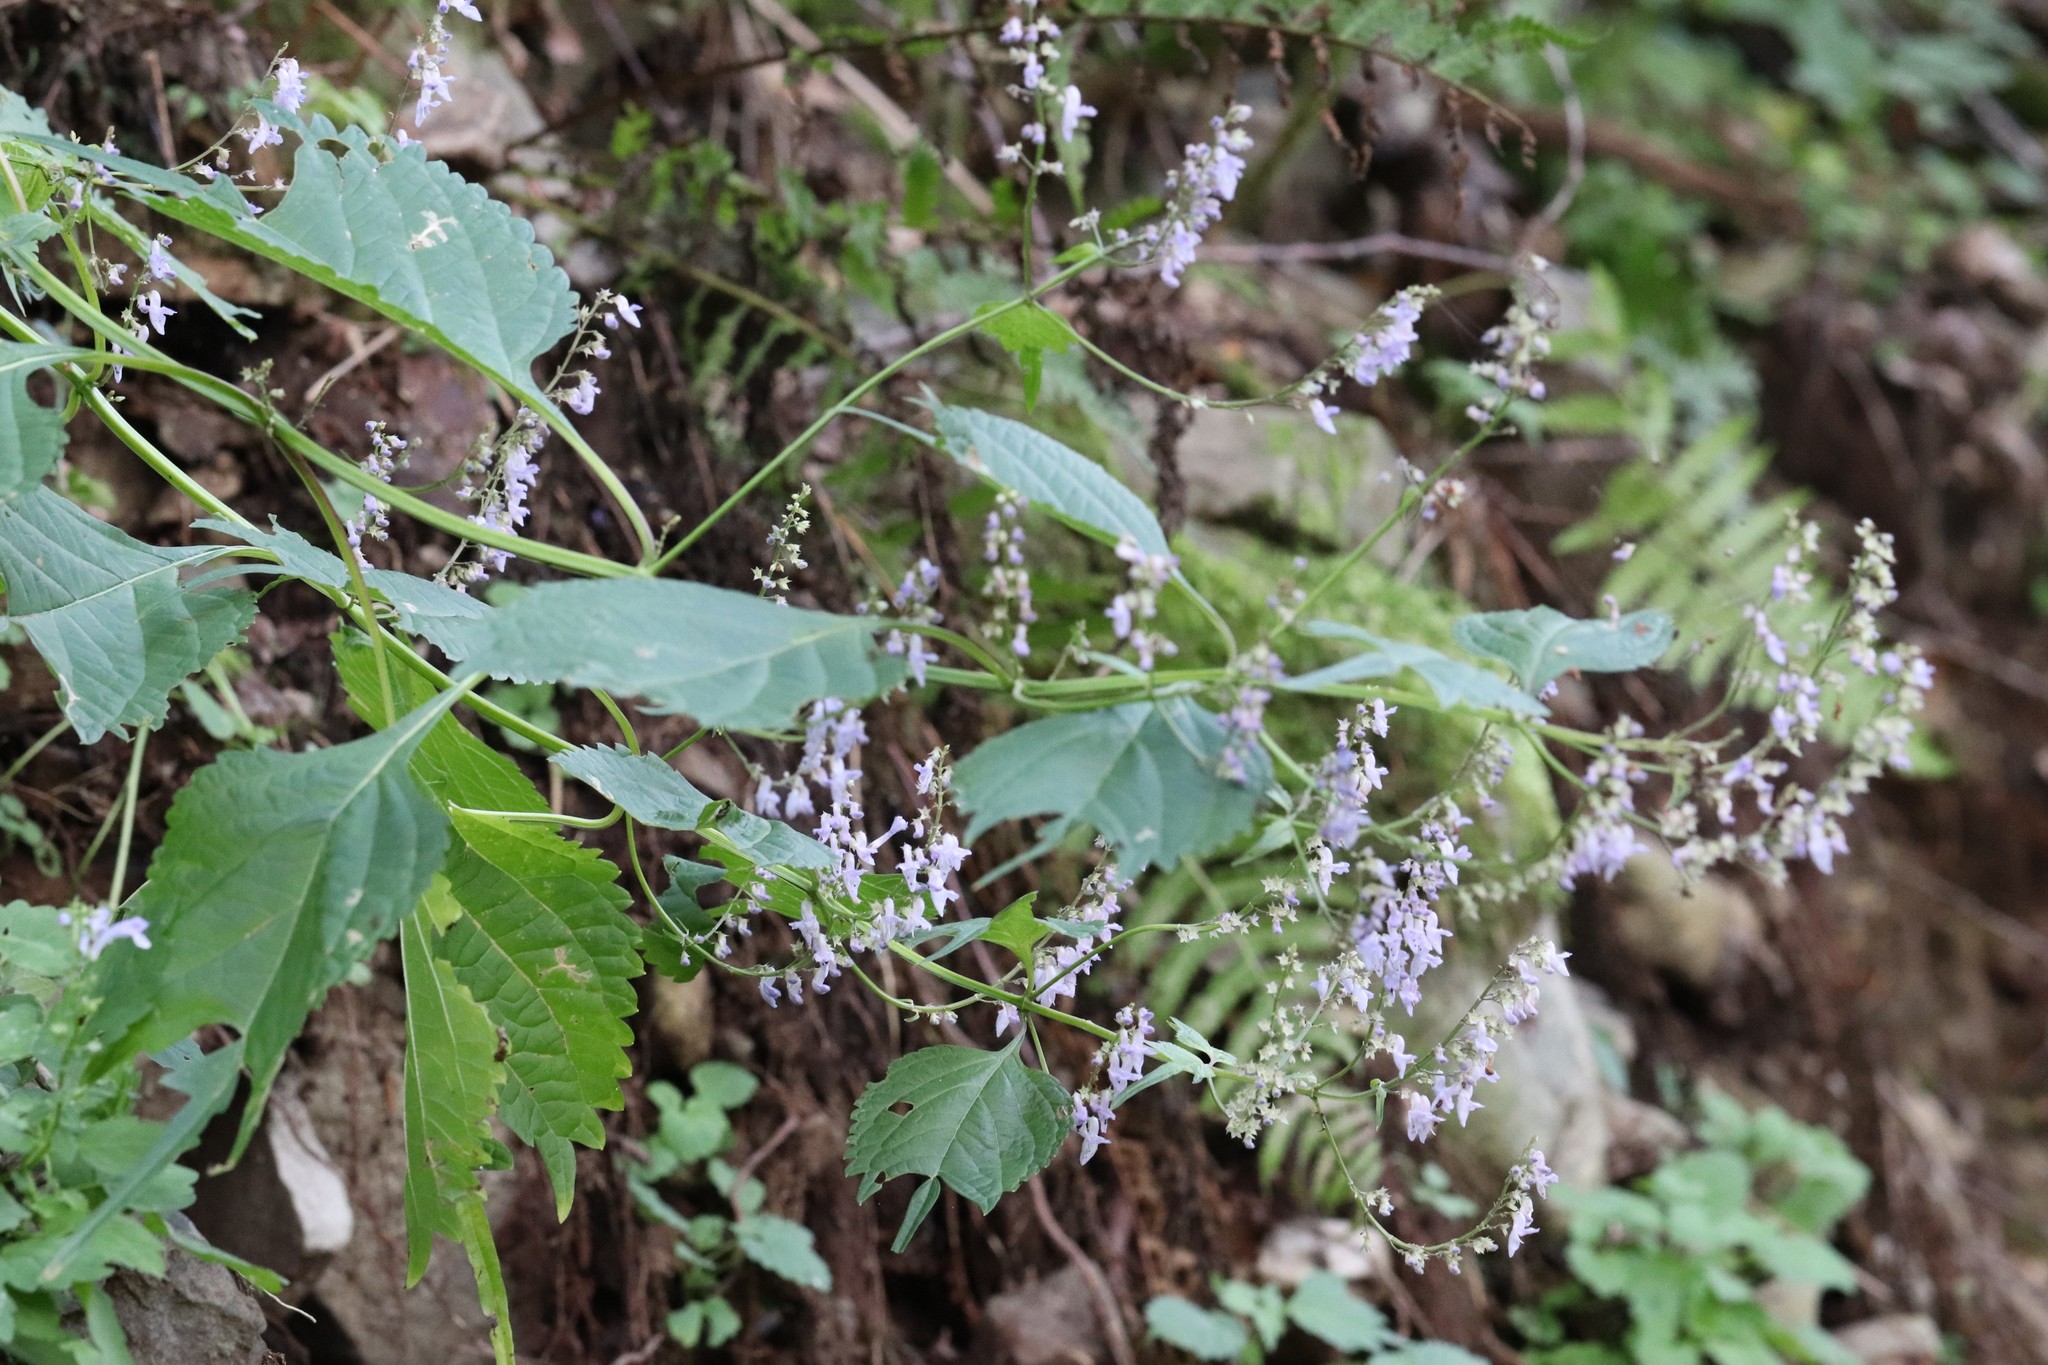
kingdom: Plantae
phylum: Tracheophyta
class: Magnoliopsida
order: Lamiales
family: Lamiaceae
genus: Isodon
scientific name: Isodon excisus
